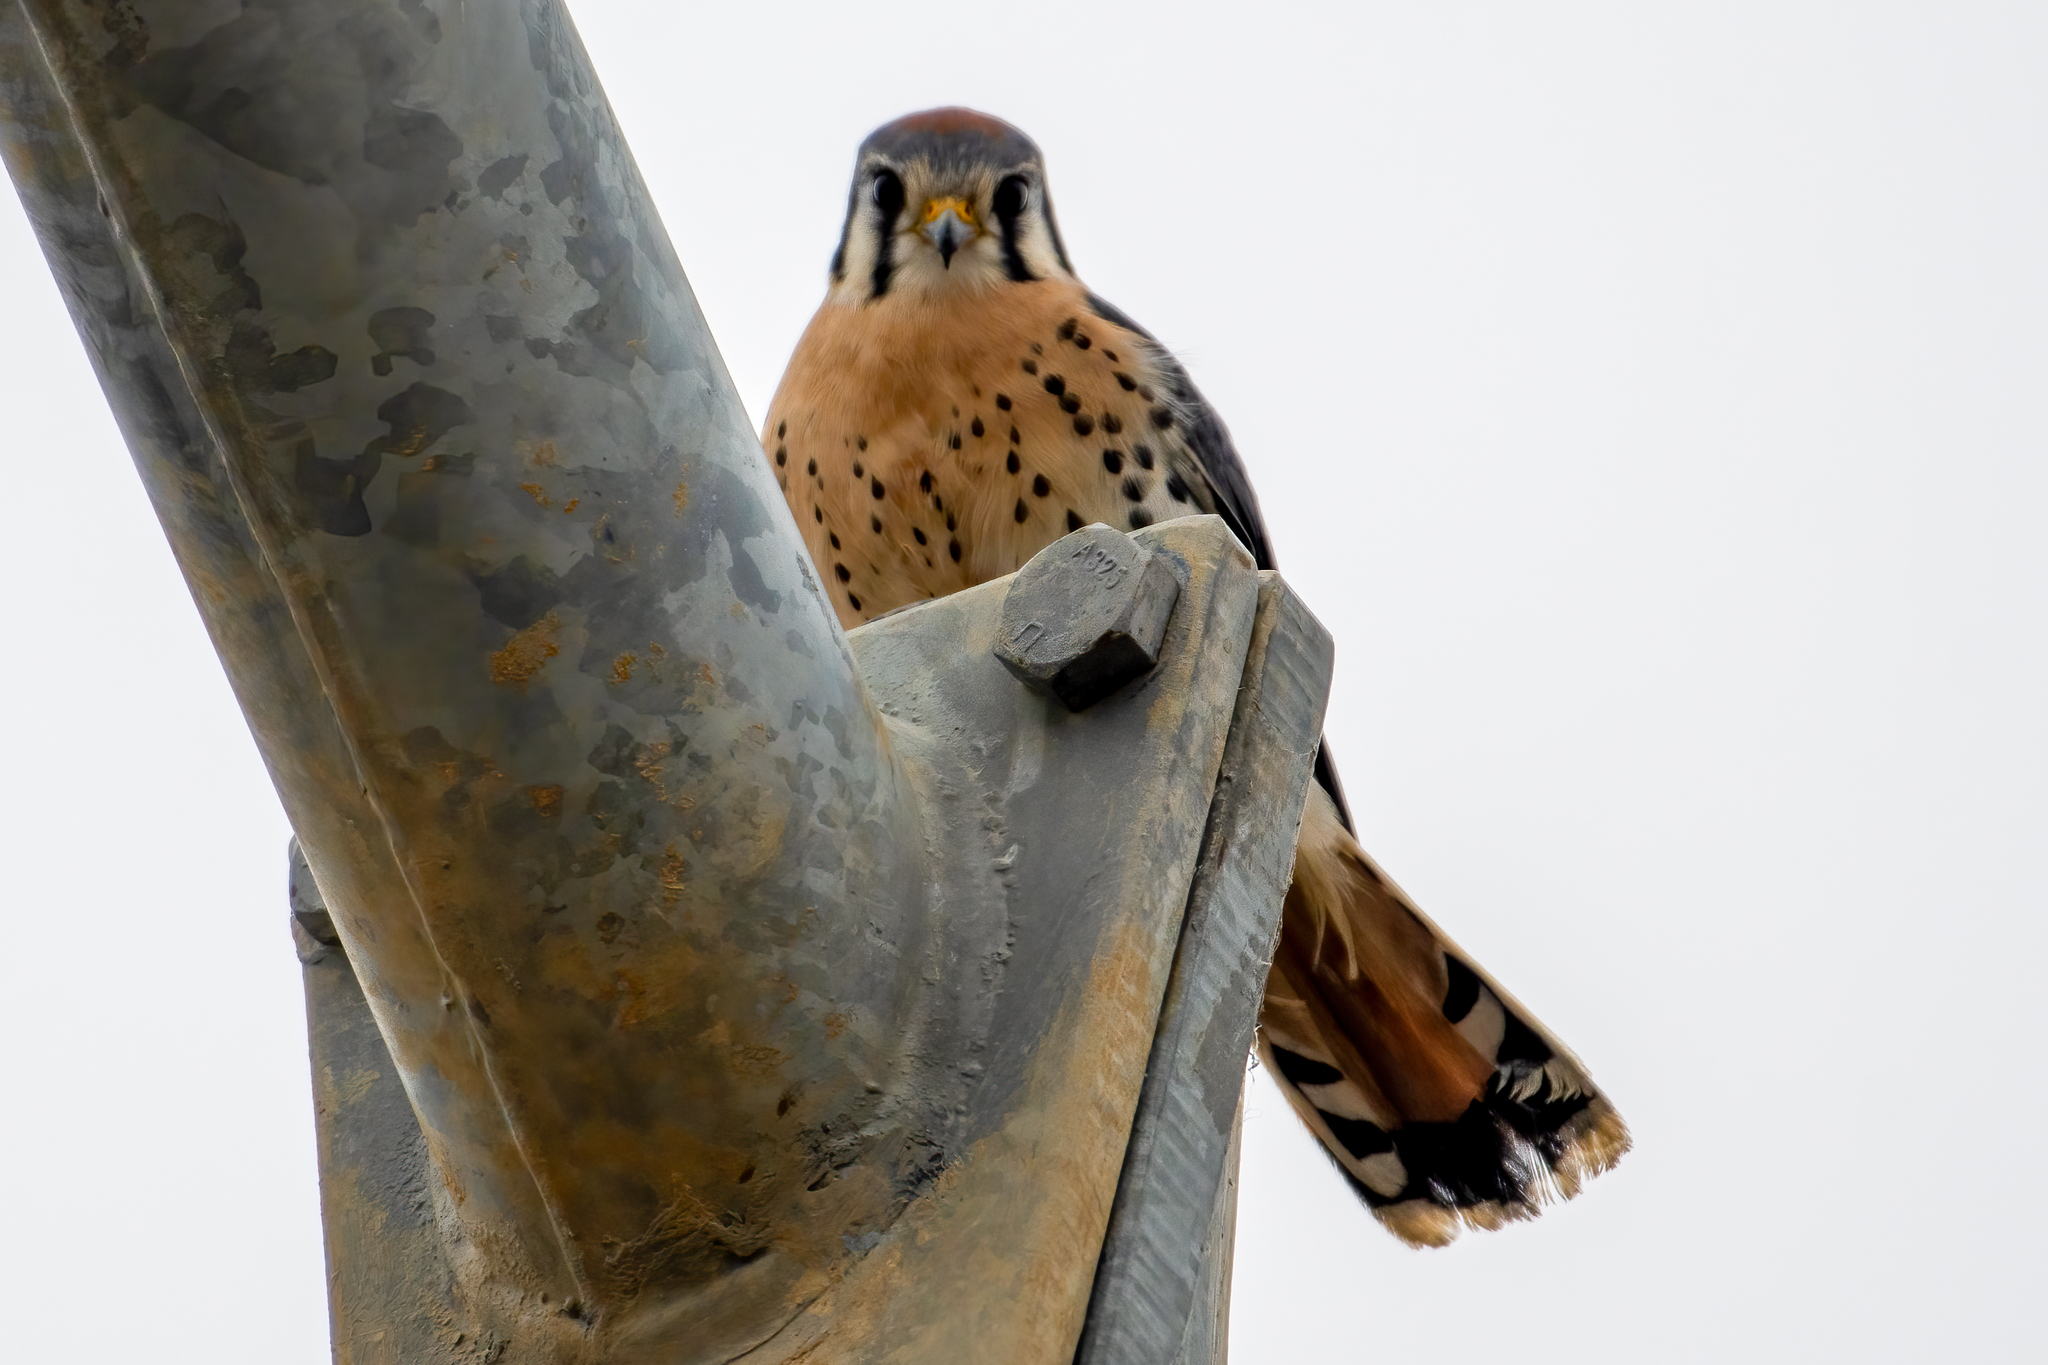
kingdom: Animalia
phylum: Chordata
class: Aves
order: Falconiformes
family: Falconidae
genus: Falco
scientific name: Falco sparverius
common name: American kestrel
